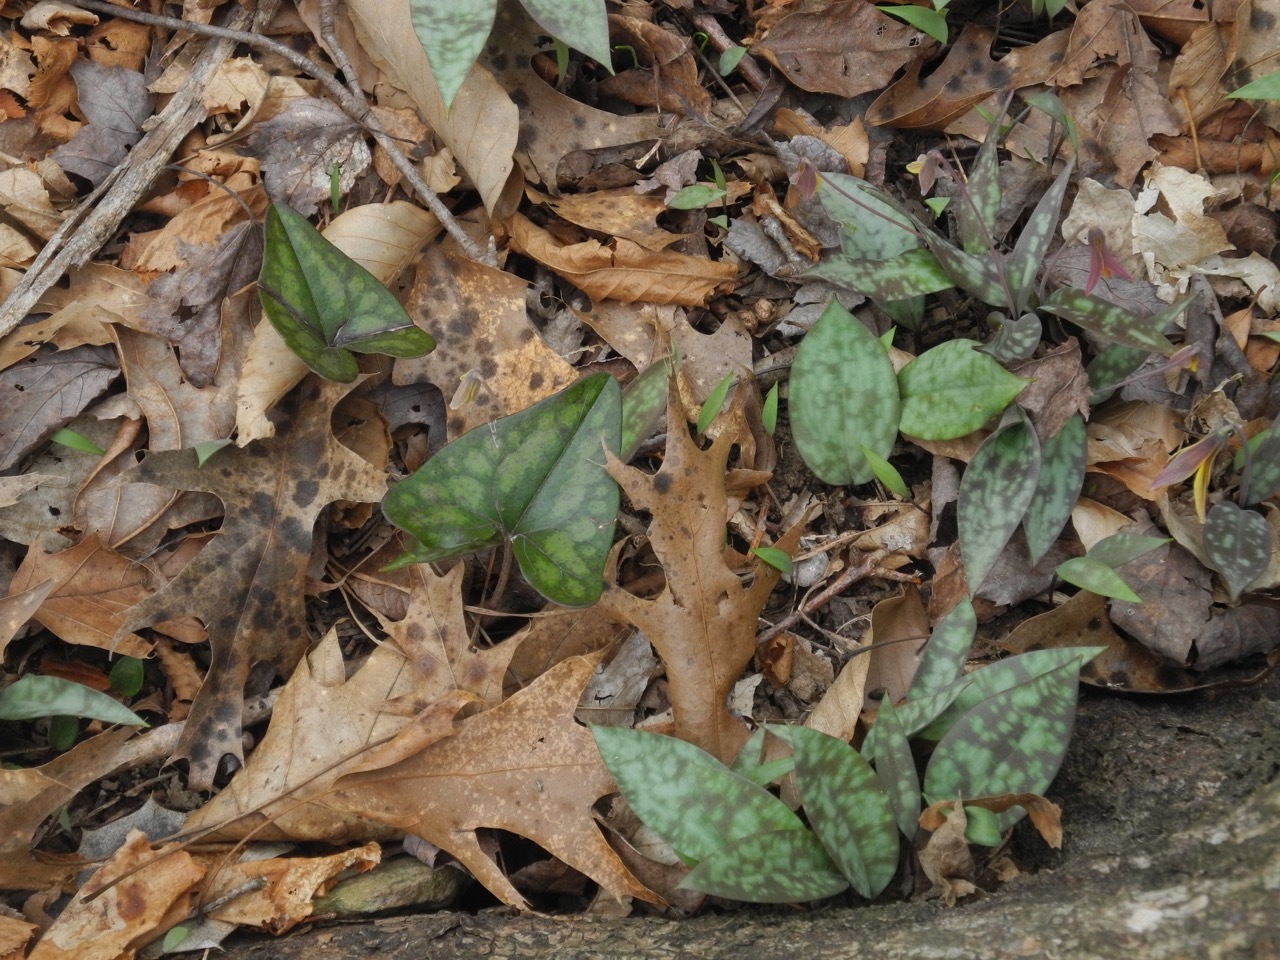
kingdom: Plantae
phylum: Tracheophyta
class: Magnoliopsida
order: Fagales
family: Fagaceae
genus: Quercus
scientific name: Quercus pagoda
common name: Cherrybark oak
